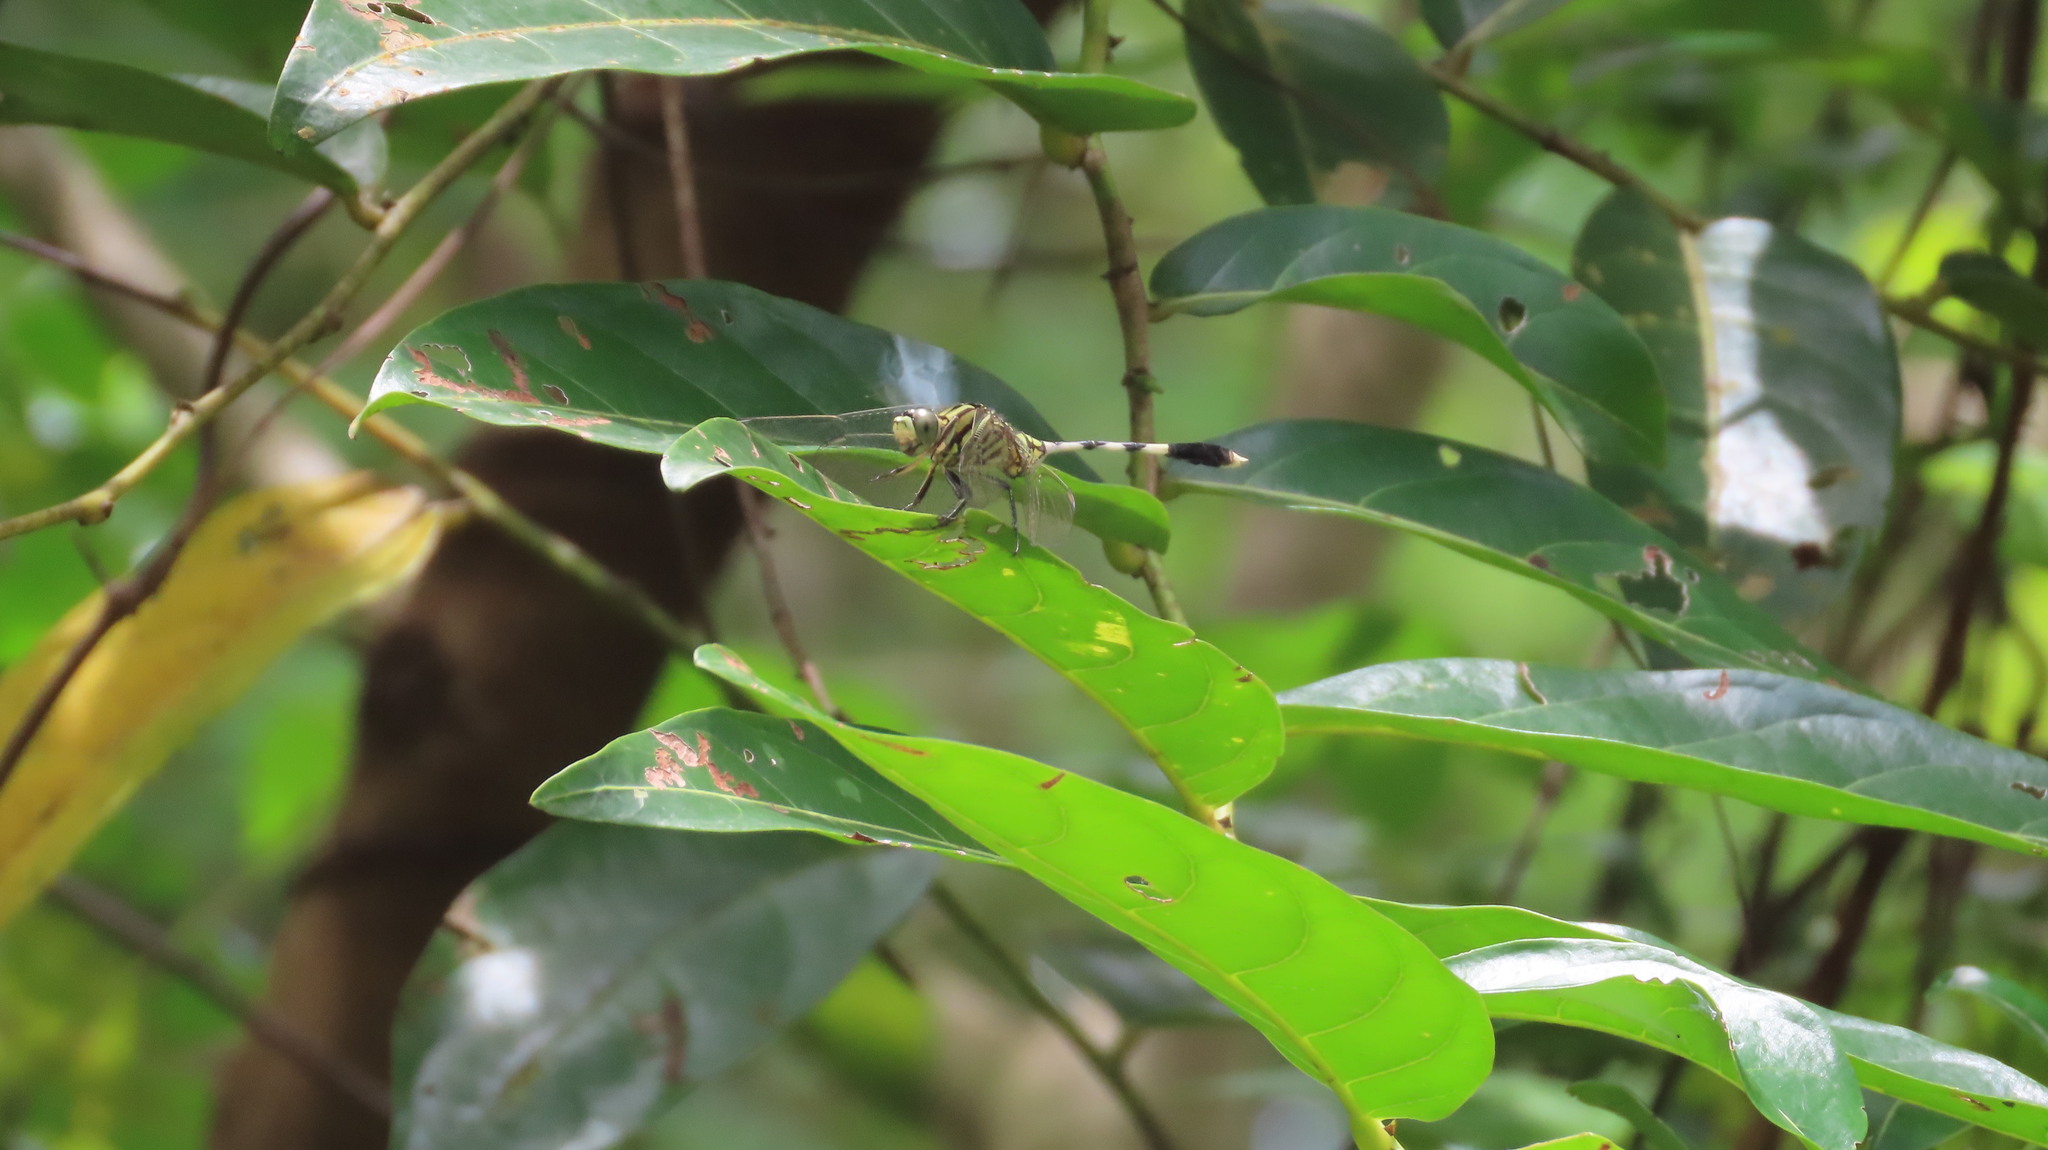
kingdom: Animalia
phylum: Arthropoda
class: Insecta
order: Odonata
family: Libellulidae
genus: Orthetrum
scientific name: Orthetrum sabina
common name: Slender skimmer
